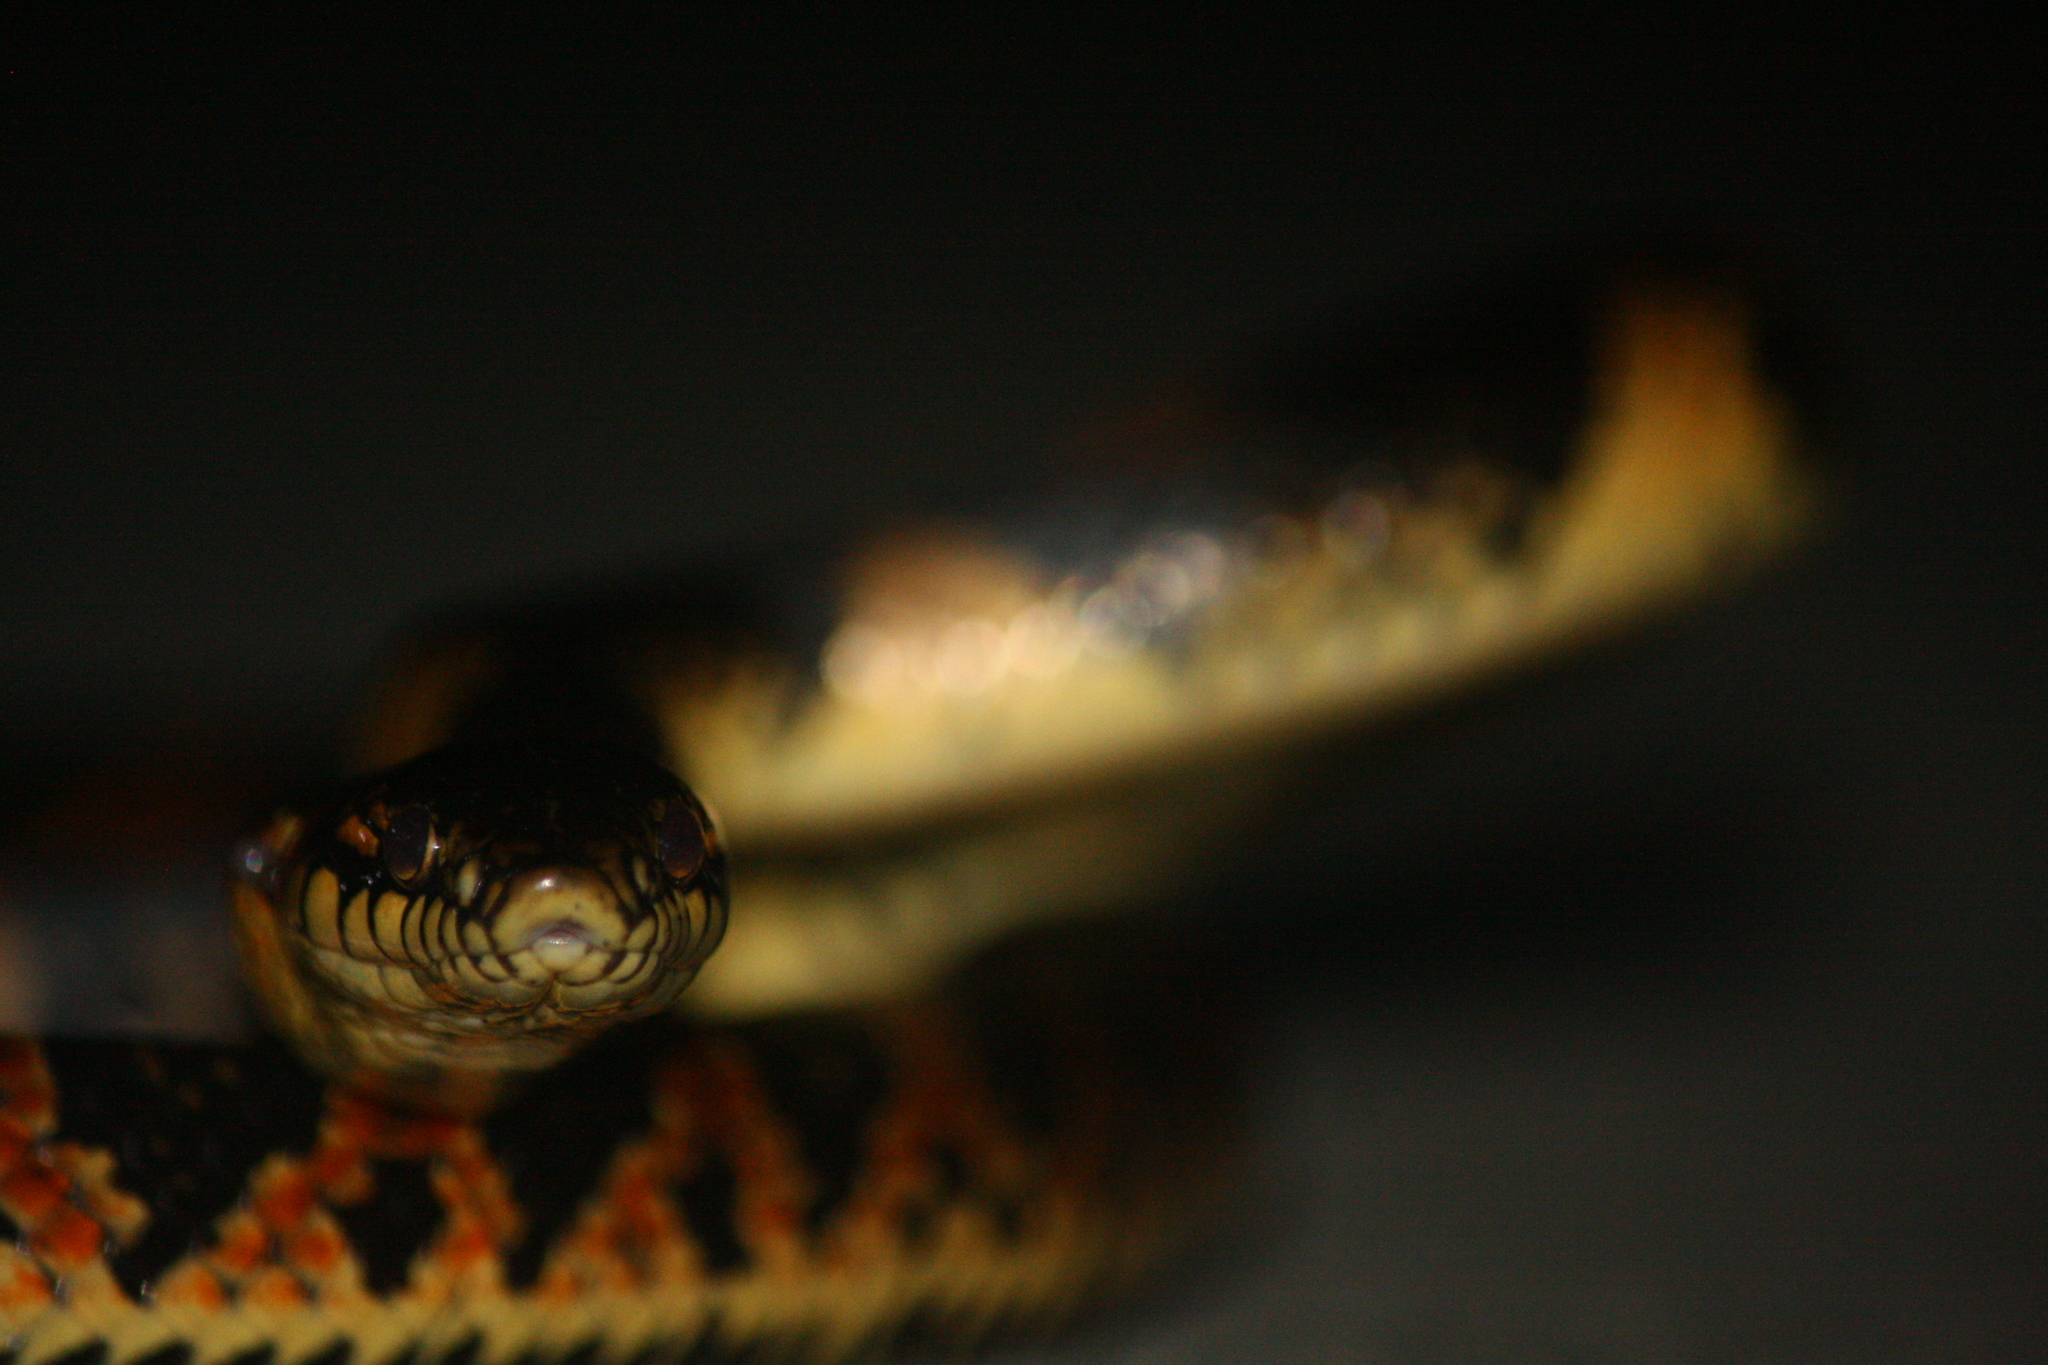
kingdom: Animalia
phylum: Chordata
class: Squamata
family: Colubridae
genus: Lycodon
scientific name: Lycodon semicarinatus
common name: Loo-choo big-tooth snake
